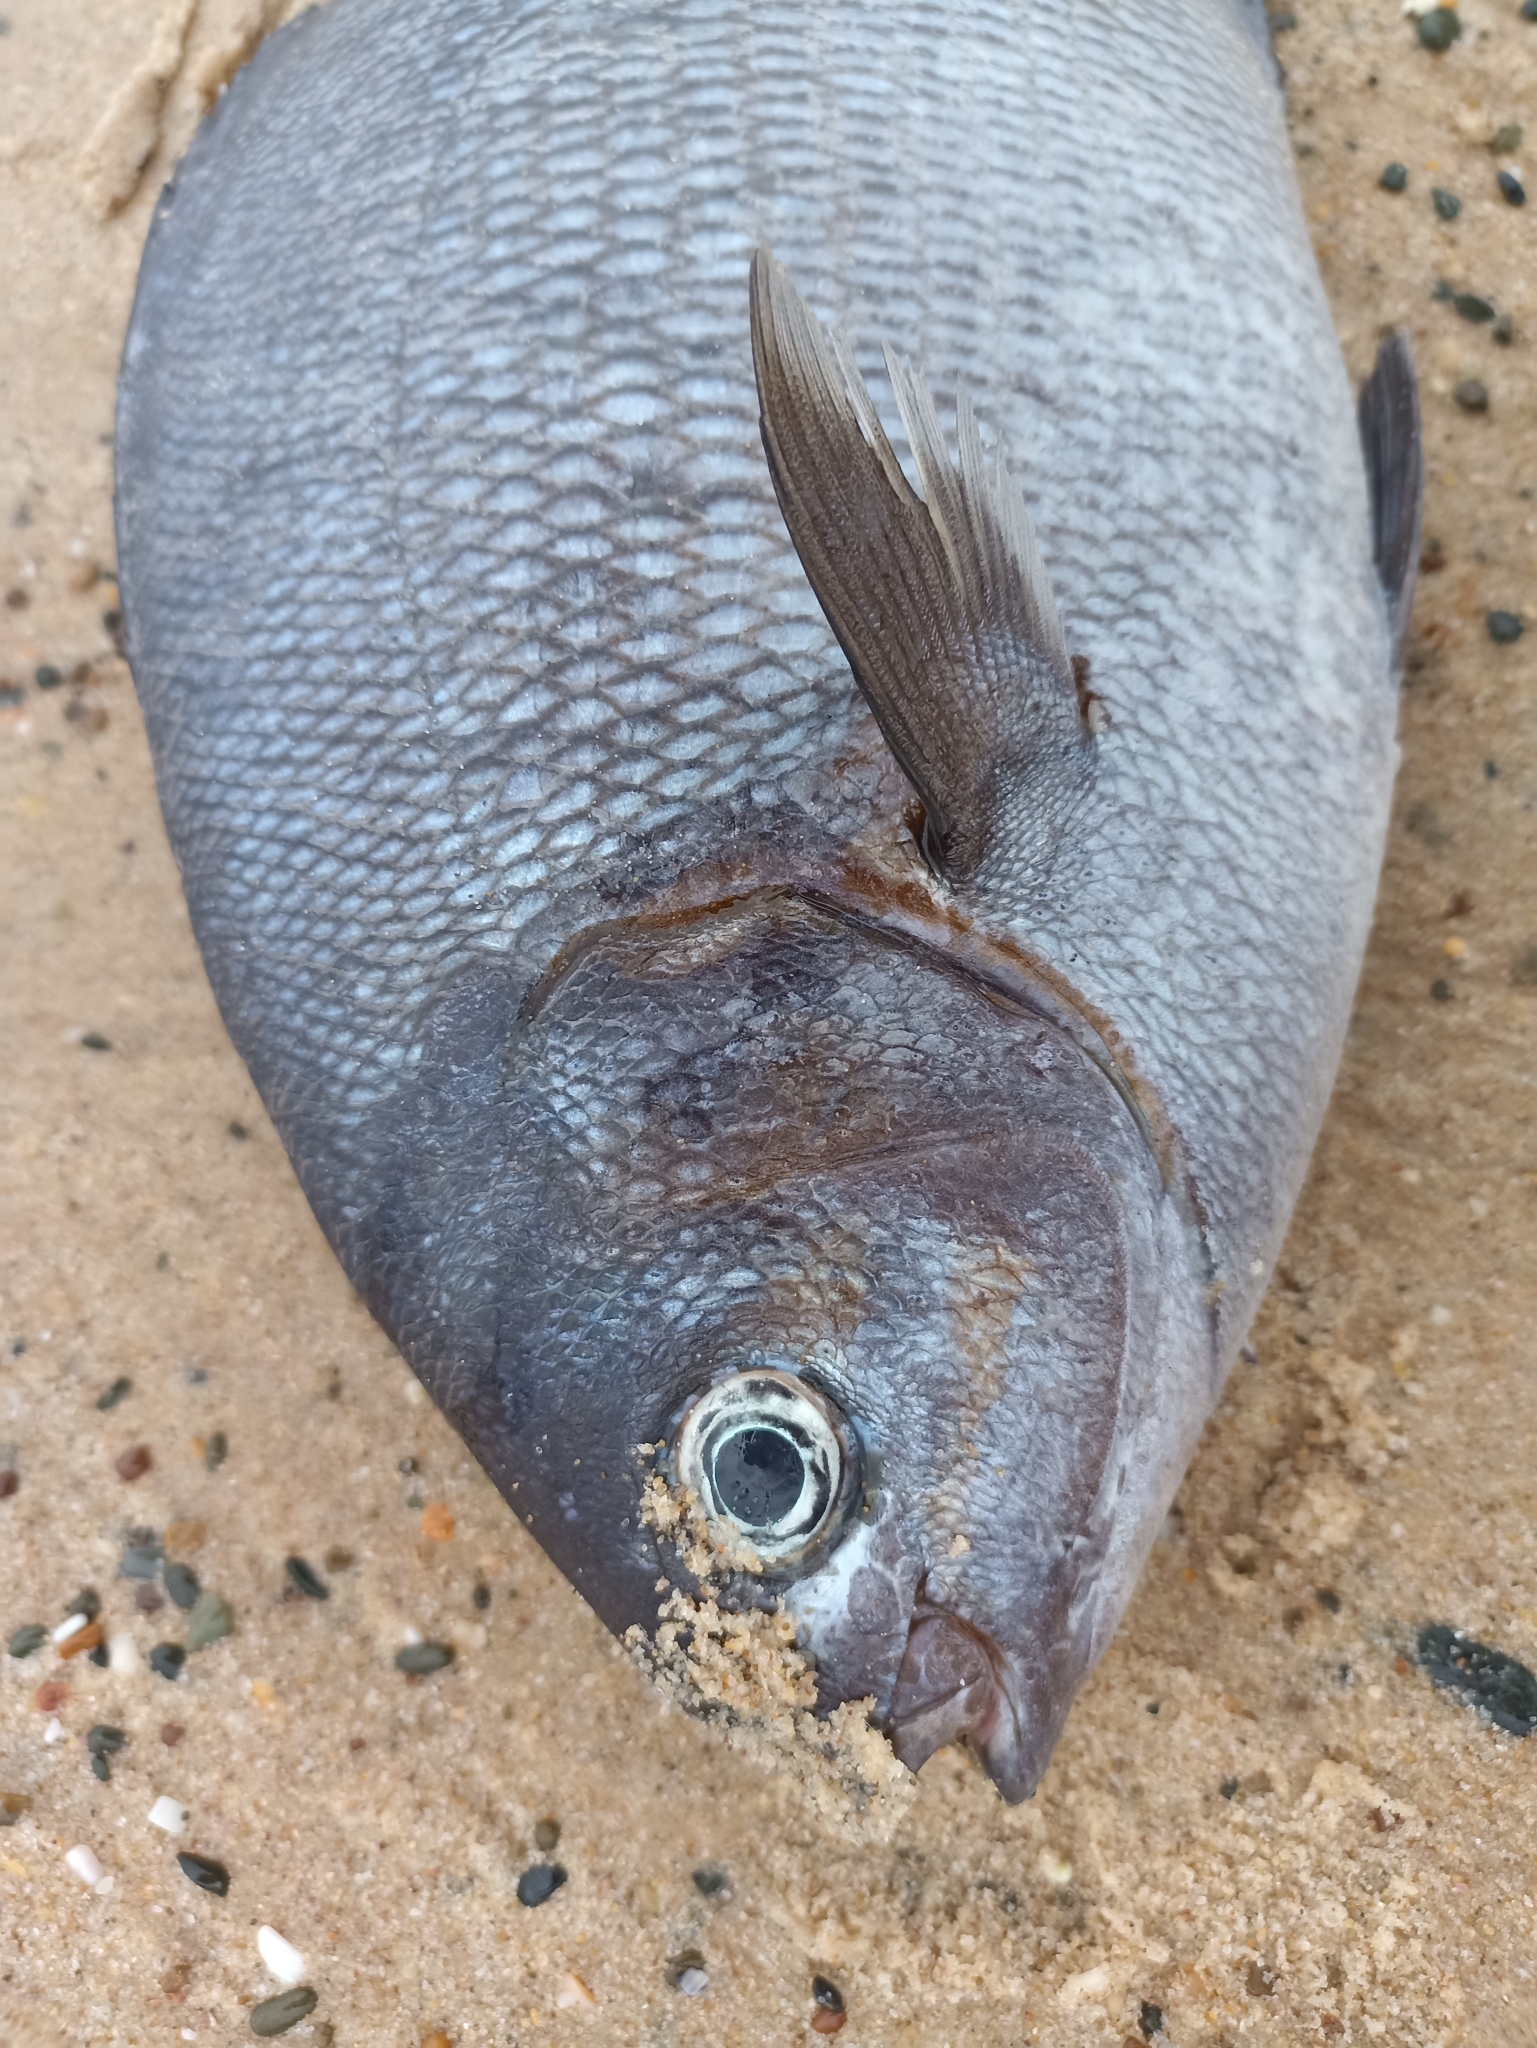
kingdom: Animalia
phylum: Chordata
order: Perciformes
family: Kyphosidae
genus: Kyphosus
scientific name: Kyphosus bigibbus
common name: Brown chub
